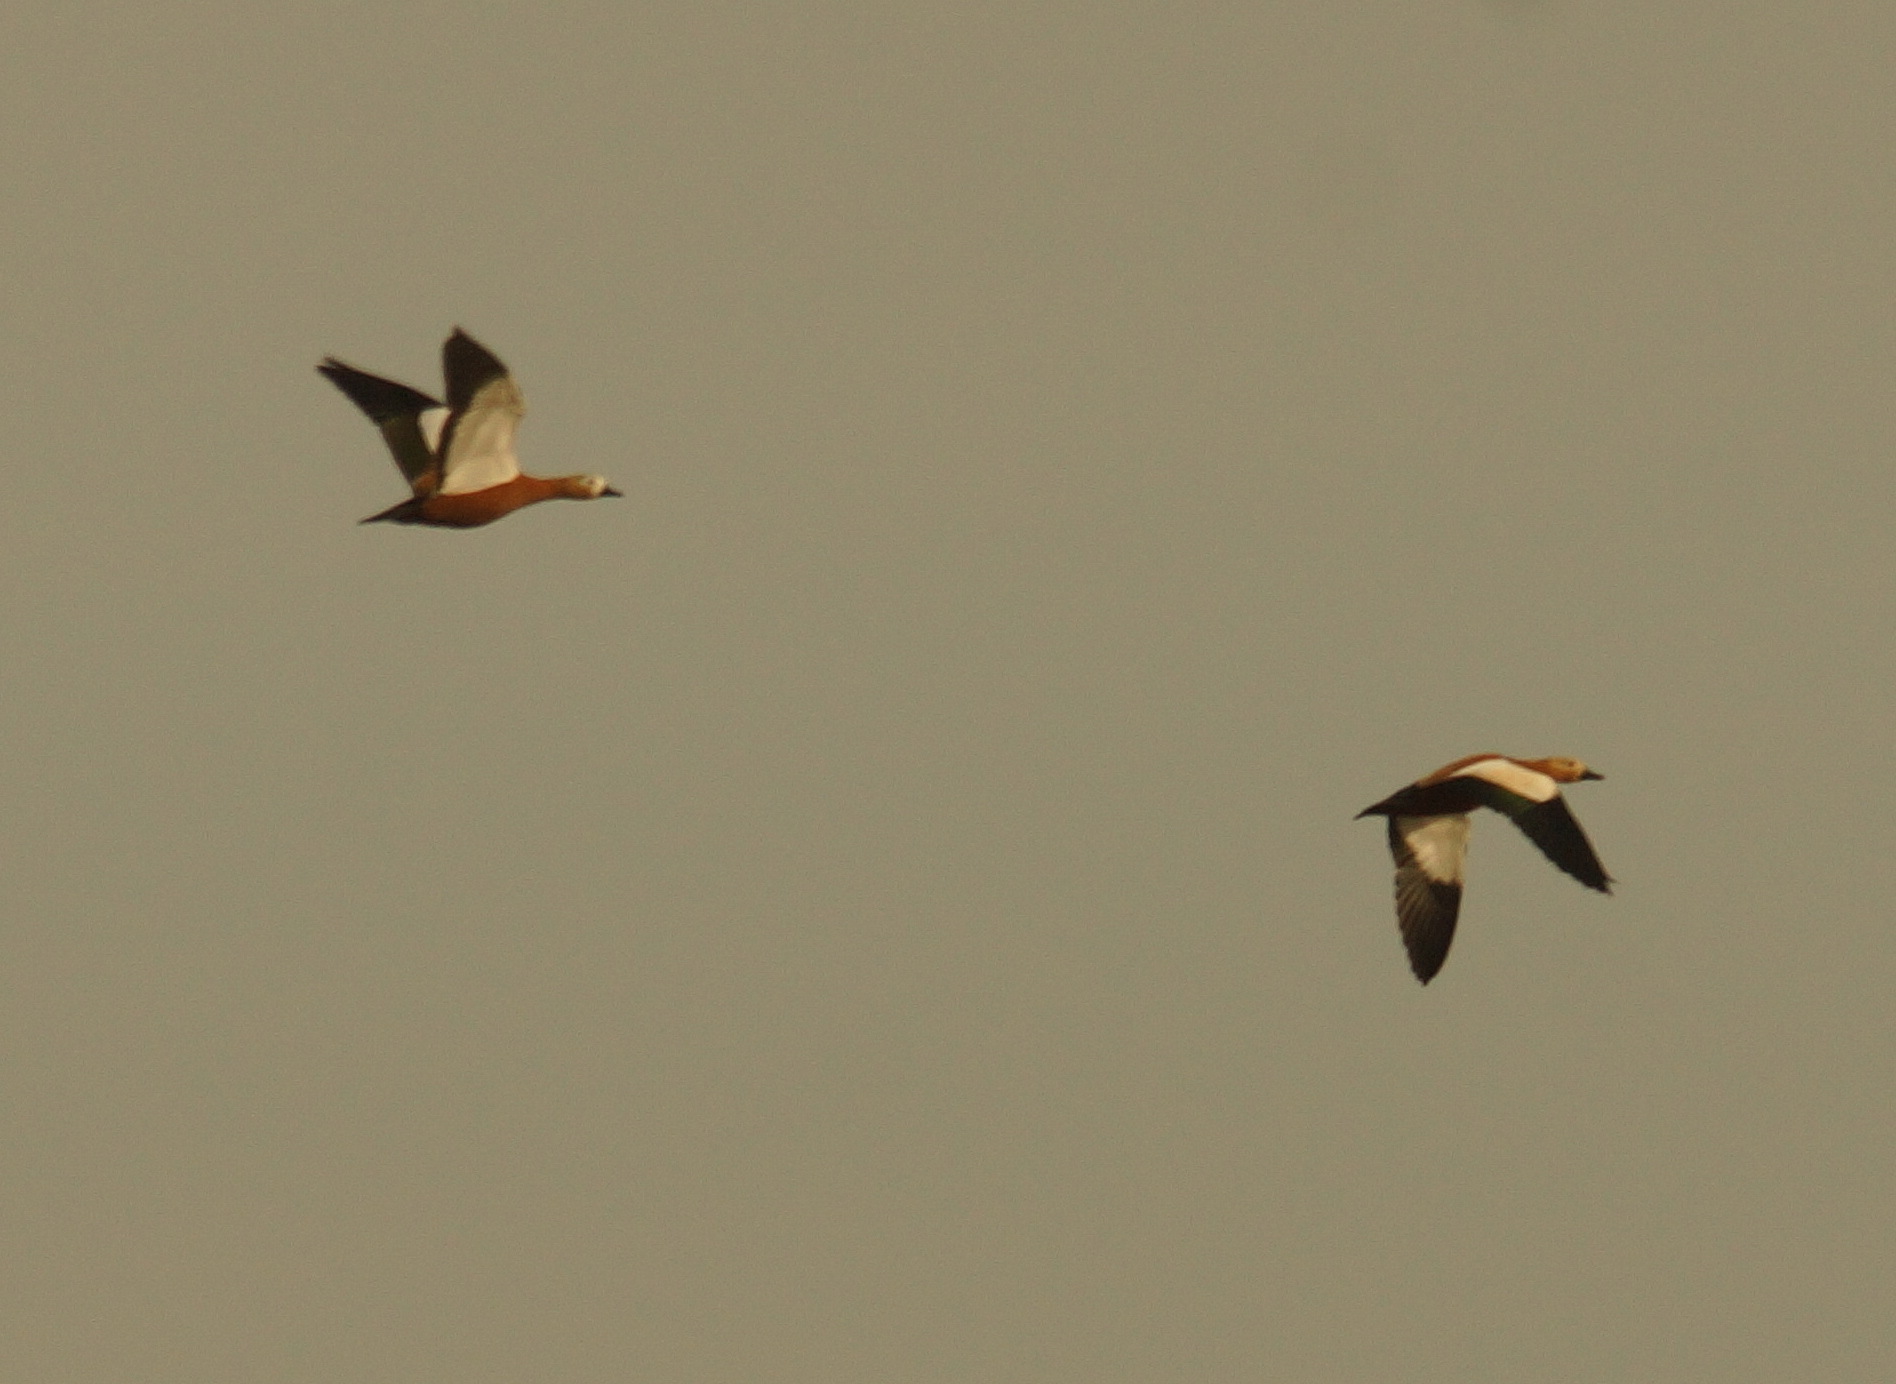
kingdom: Animalia
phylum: Chordata
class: Aves
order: Anseriformes
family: Anatidae
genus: Tadorna
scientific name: Tadorna ferruginea
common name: Ruddy shelduck
